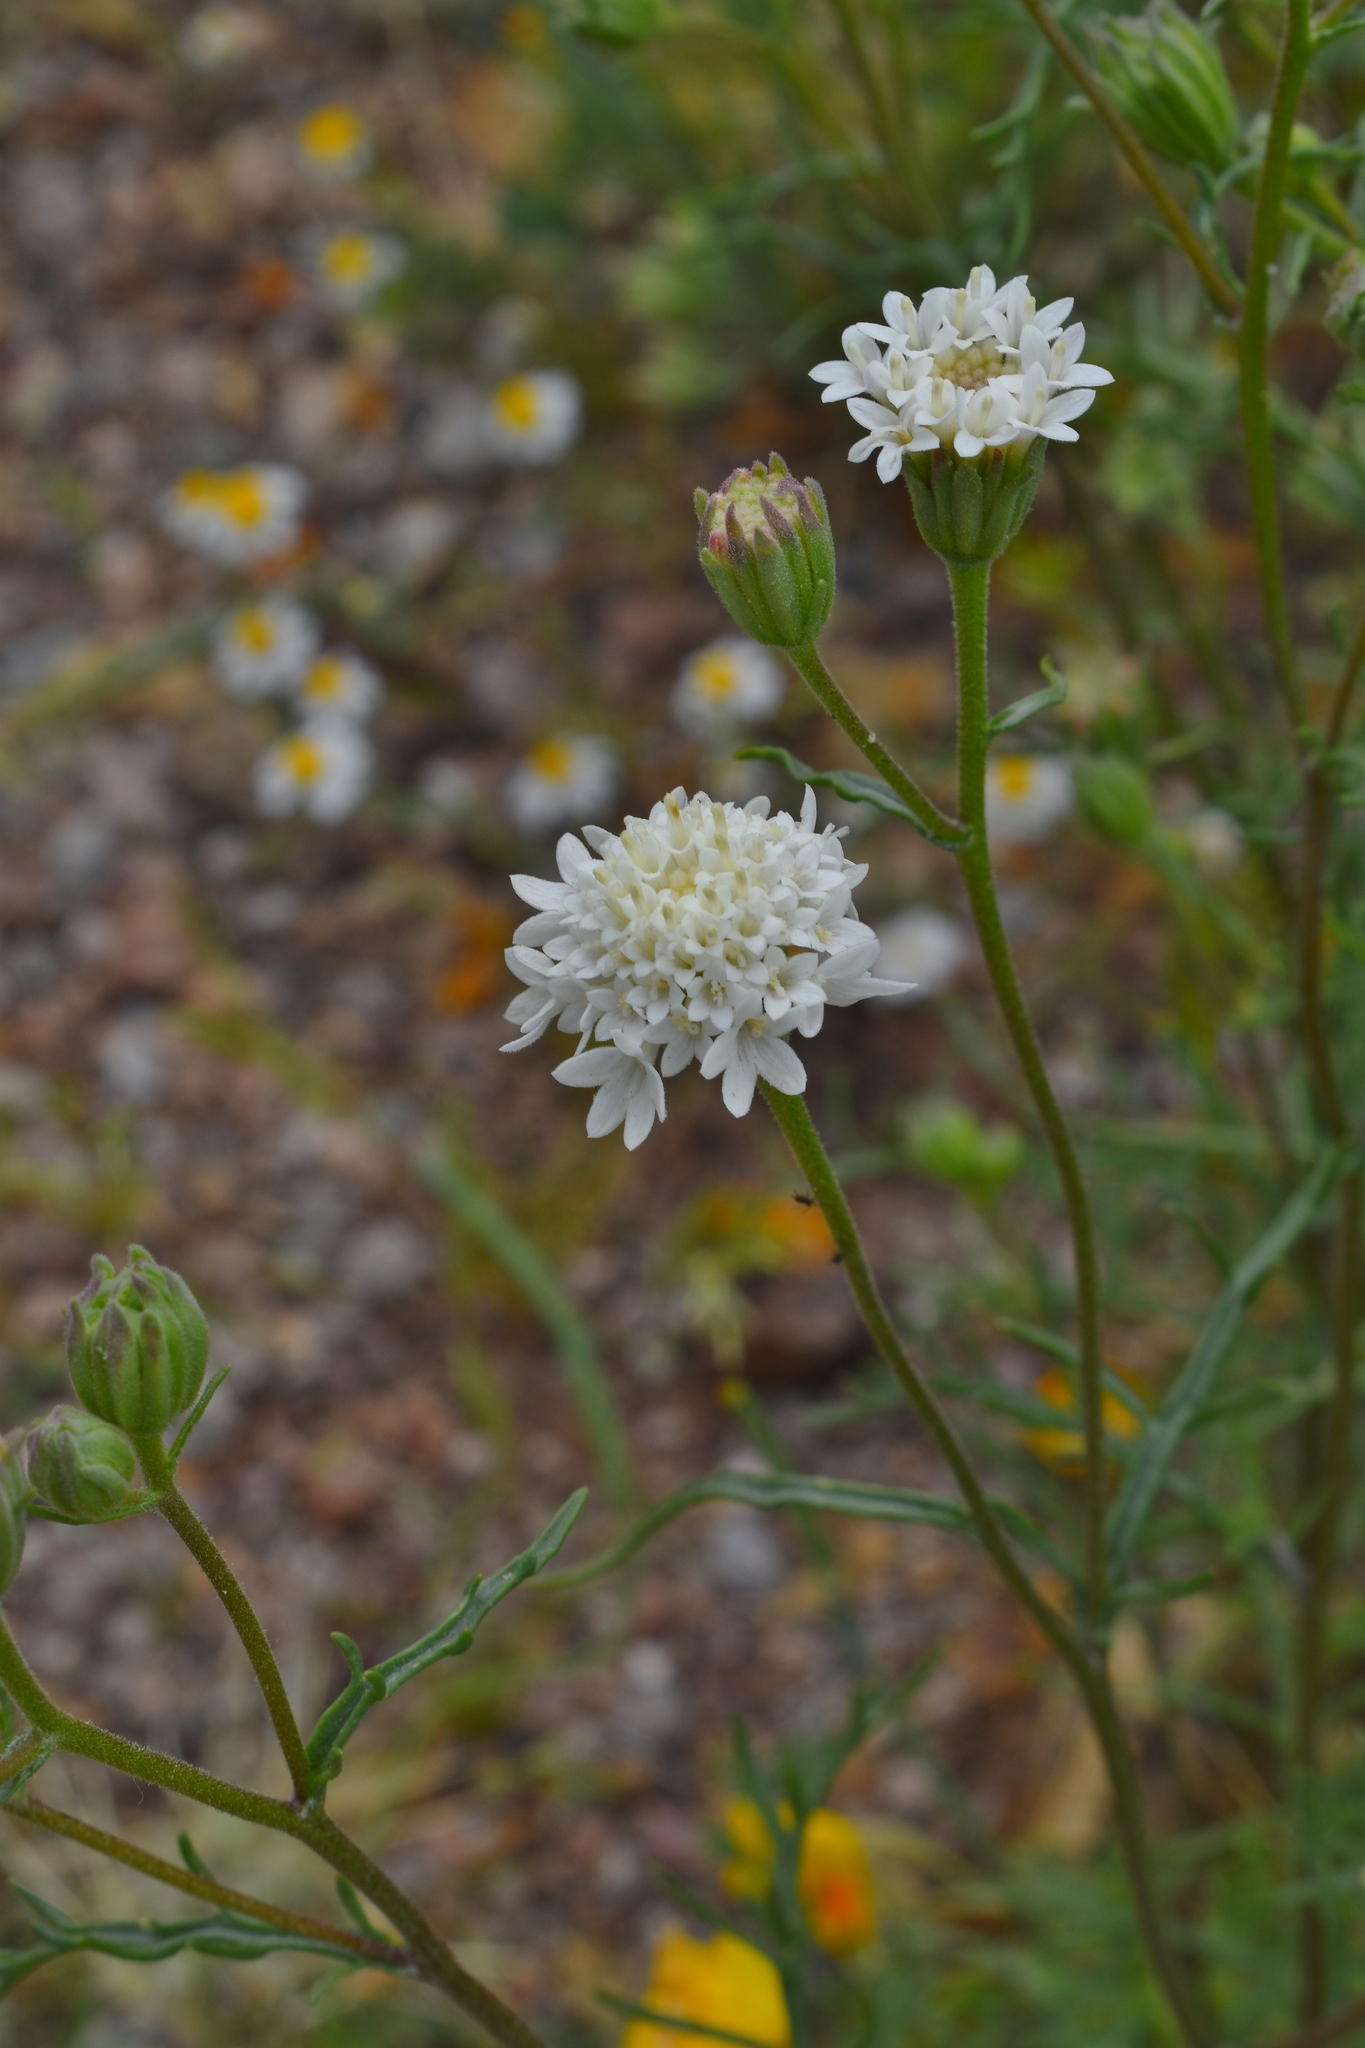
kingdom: Plantae
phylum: Tracheophyta
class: Magnoliopsida
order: Asterales
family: Asteraceae
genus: Chaenactis
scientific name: Chaenactis stevioides
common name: Desert pincushion
